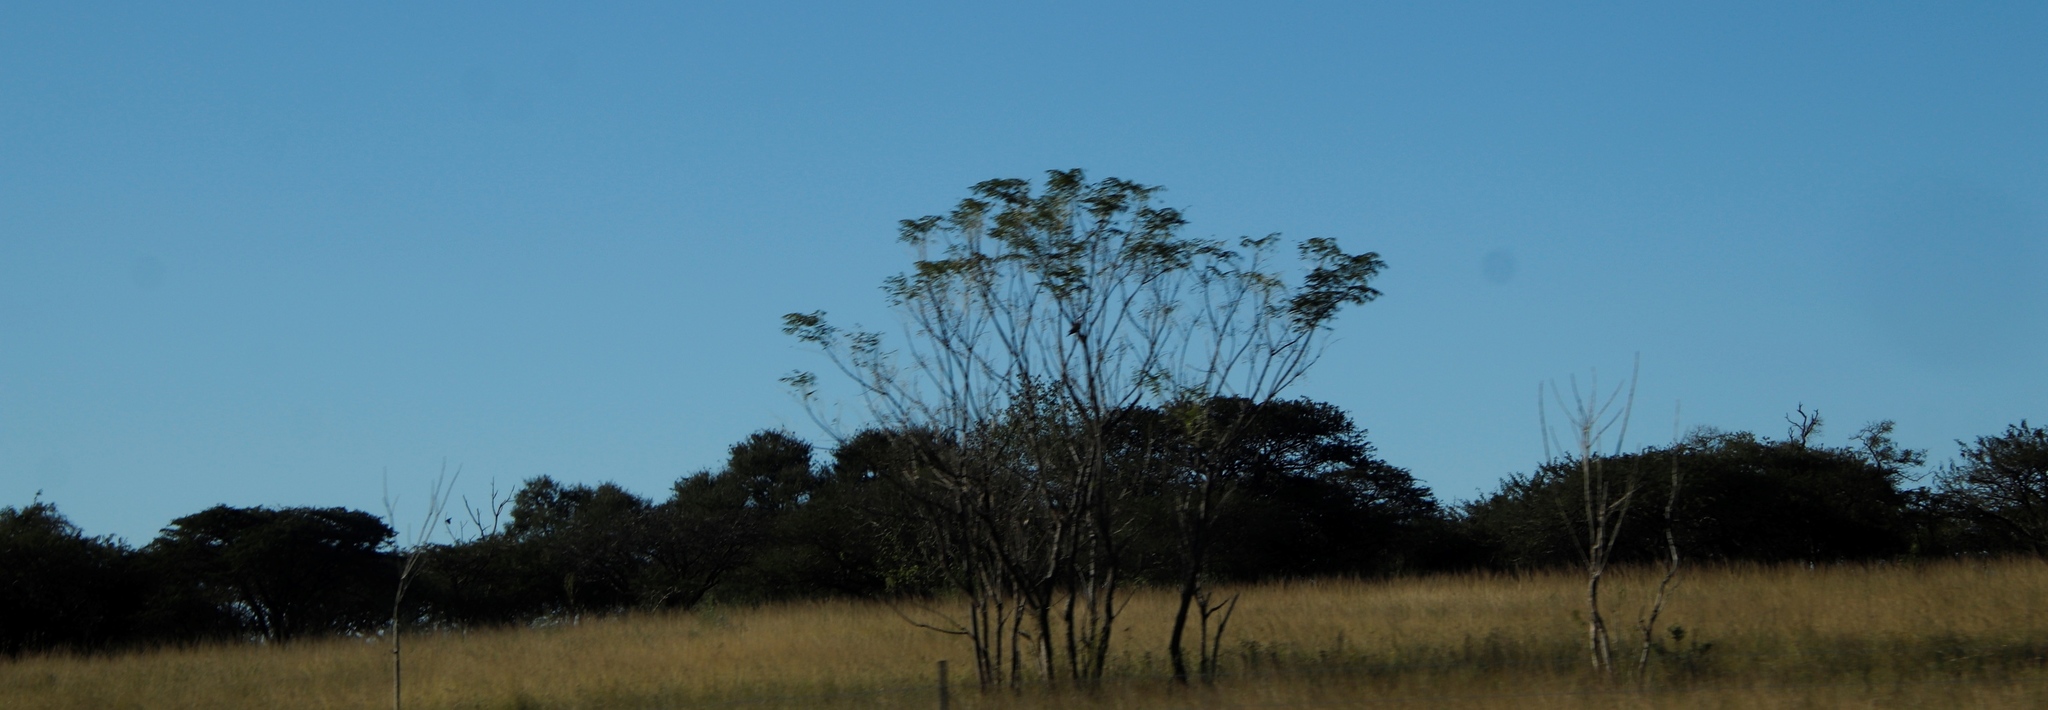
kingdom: Plantae
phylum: Tracheophyta
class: Magnoliopsida
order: Sapindales
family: Meliaceae
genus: Melia
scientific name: Melia azedarach
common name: Chinaberrytree
